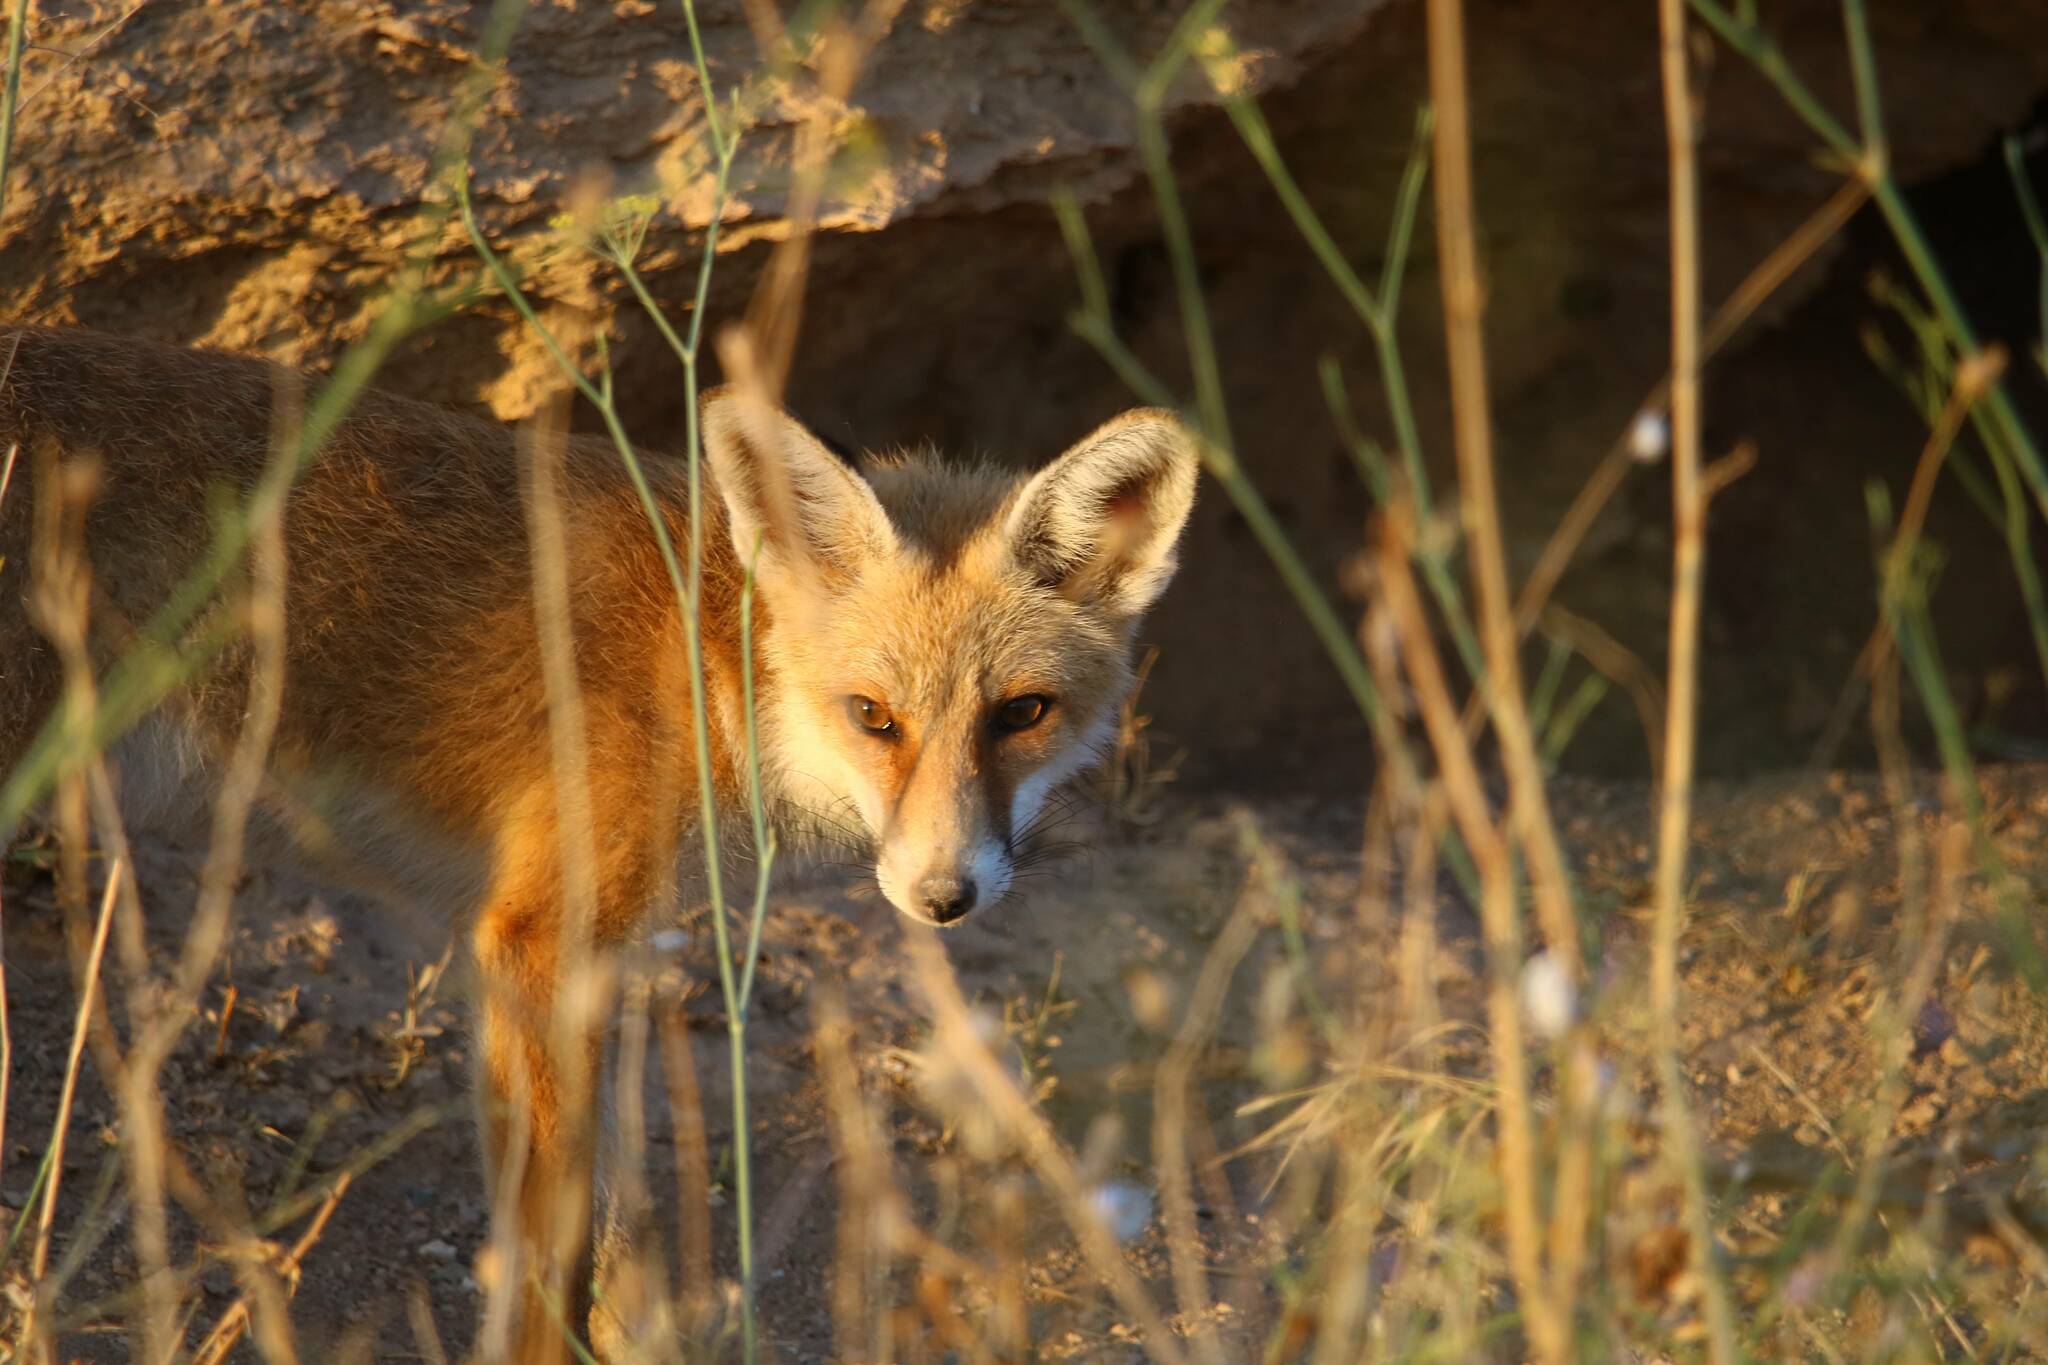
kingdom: Animalia
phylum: Chordata
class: Mammalia
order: Carnivora
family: Canidae
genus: Vulpes
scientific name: Vulpes vulpes
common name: Red fox
